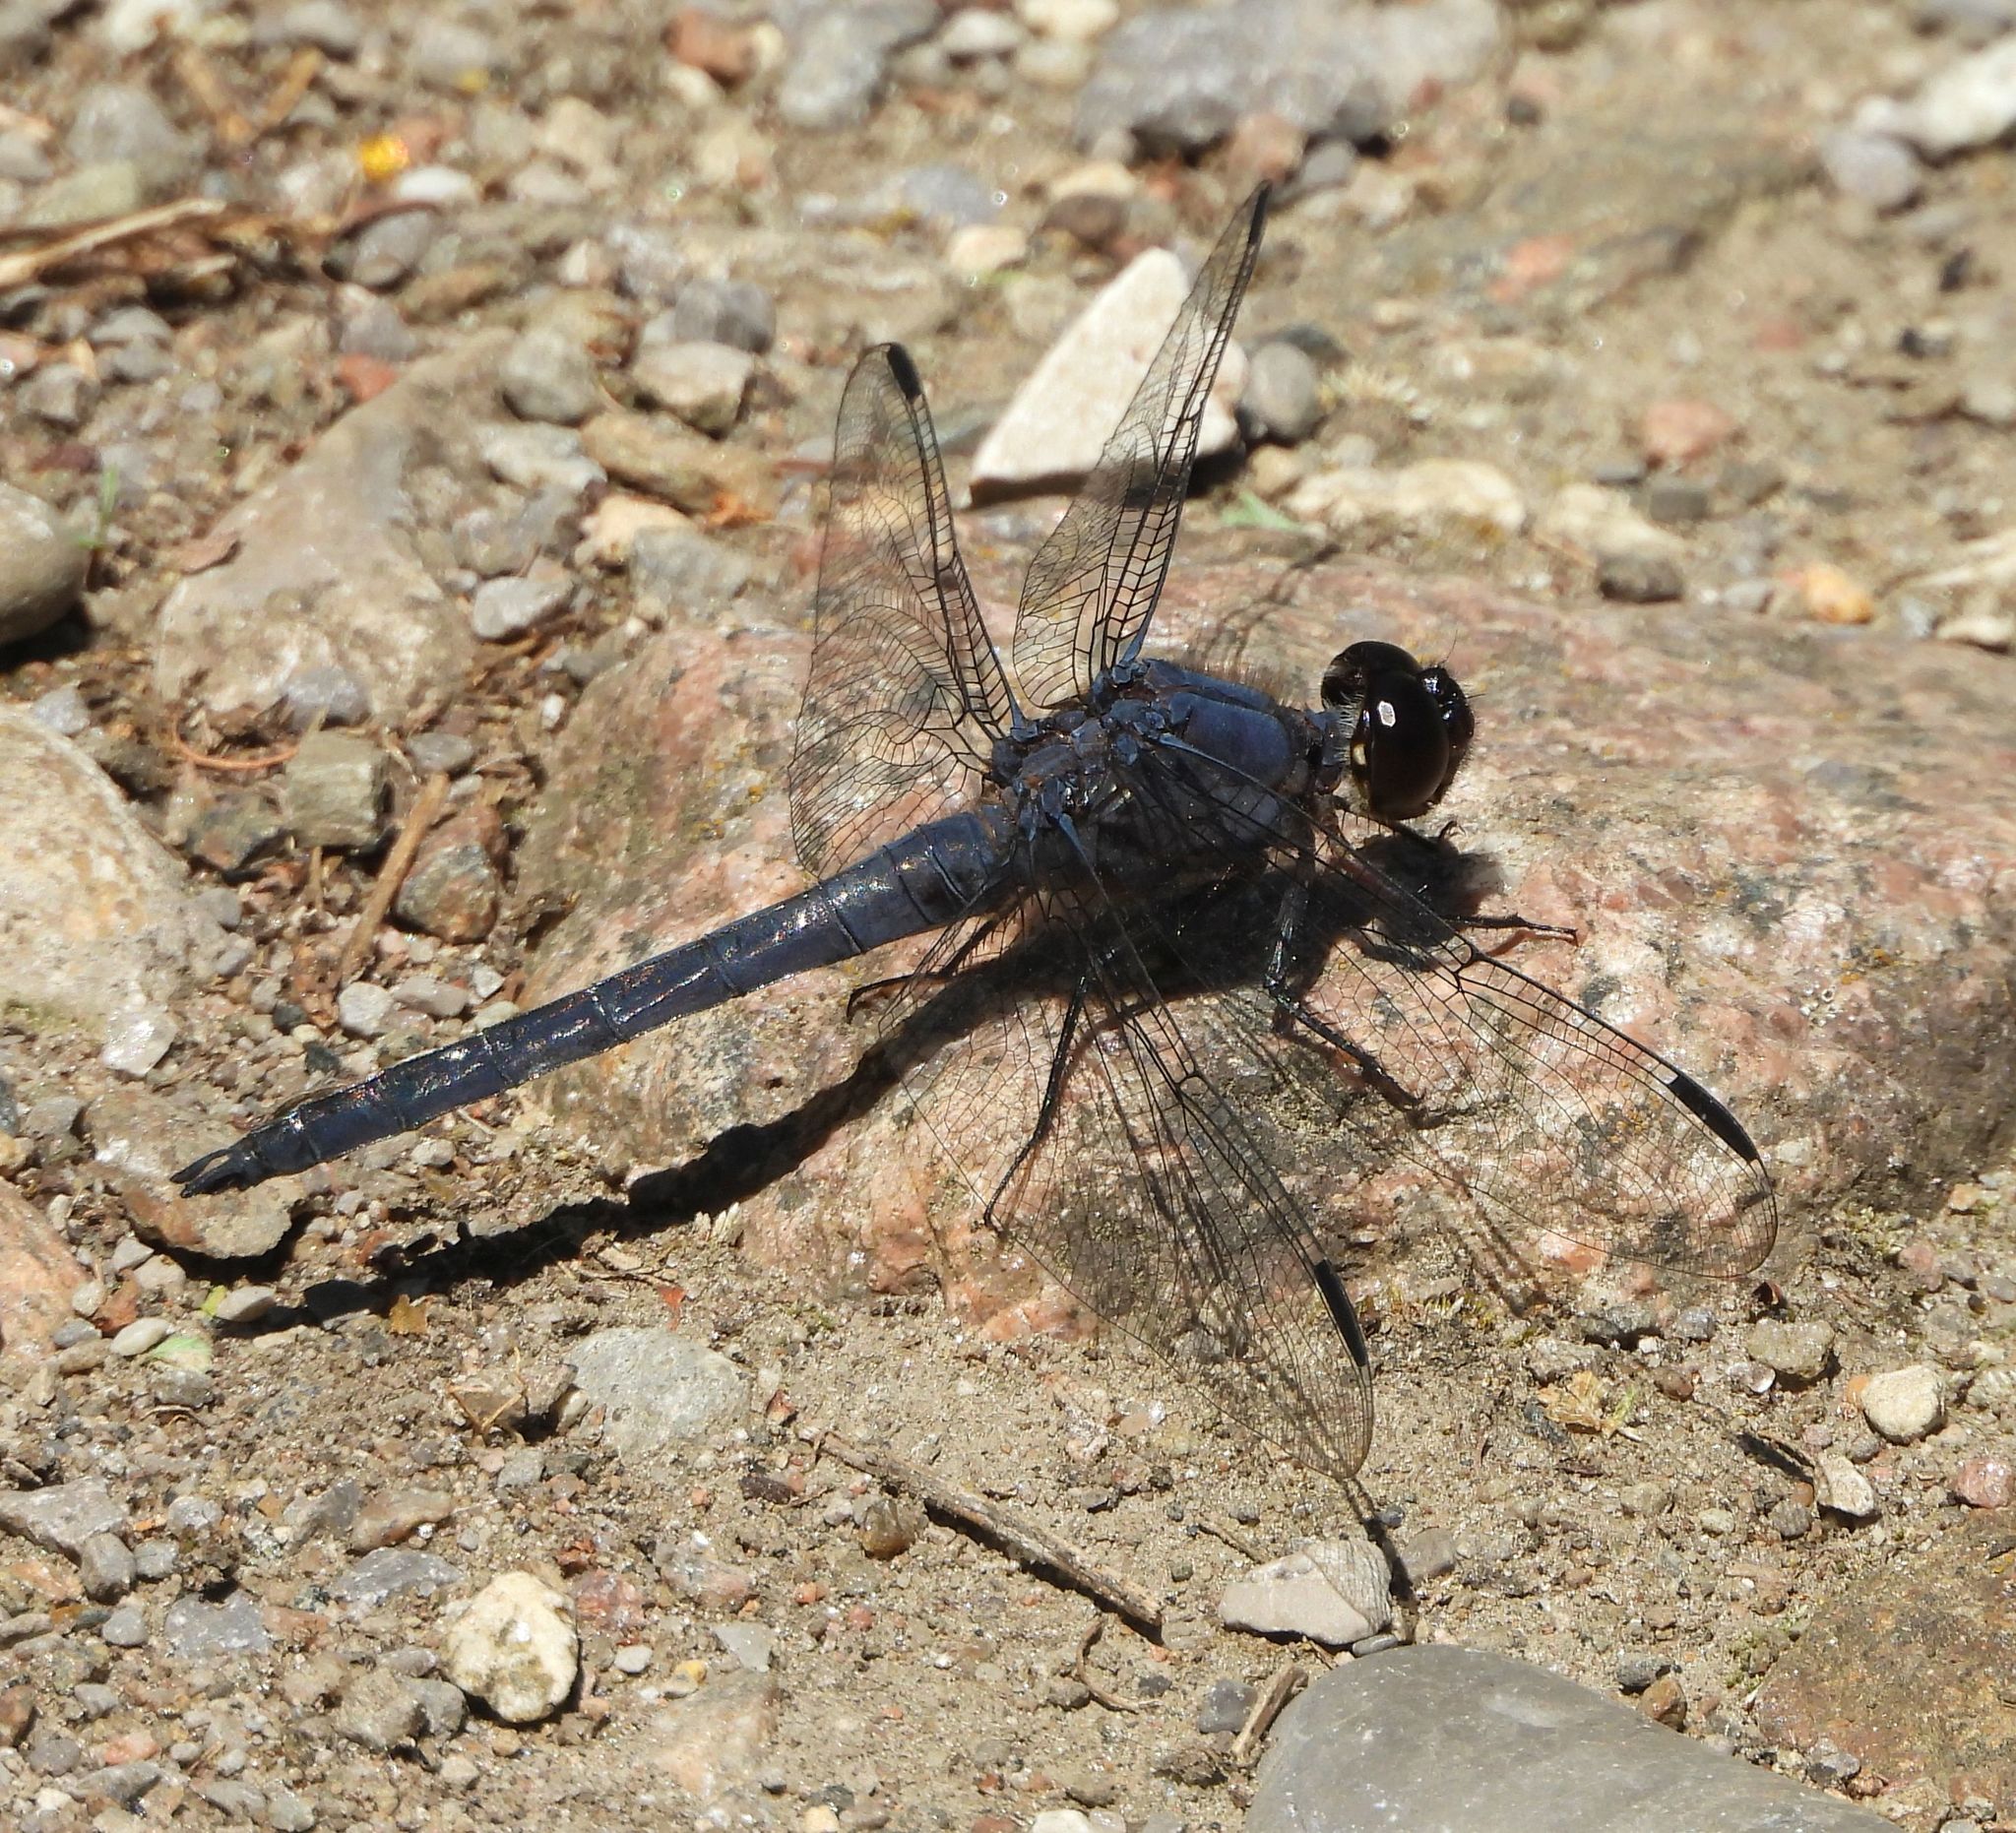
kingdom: Animalia
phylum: Arthropoda
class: Insecta
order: Odonata
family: Libellulidae
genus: Libellula
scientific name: Libellula incesta
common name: Slaty skimmer
